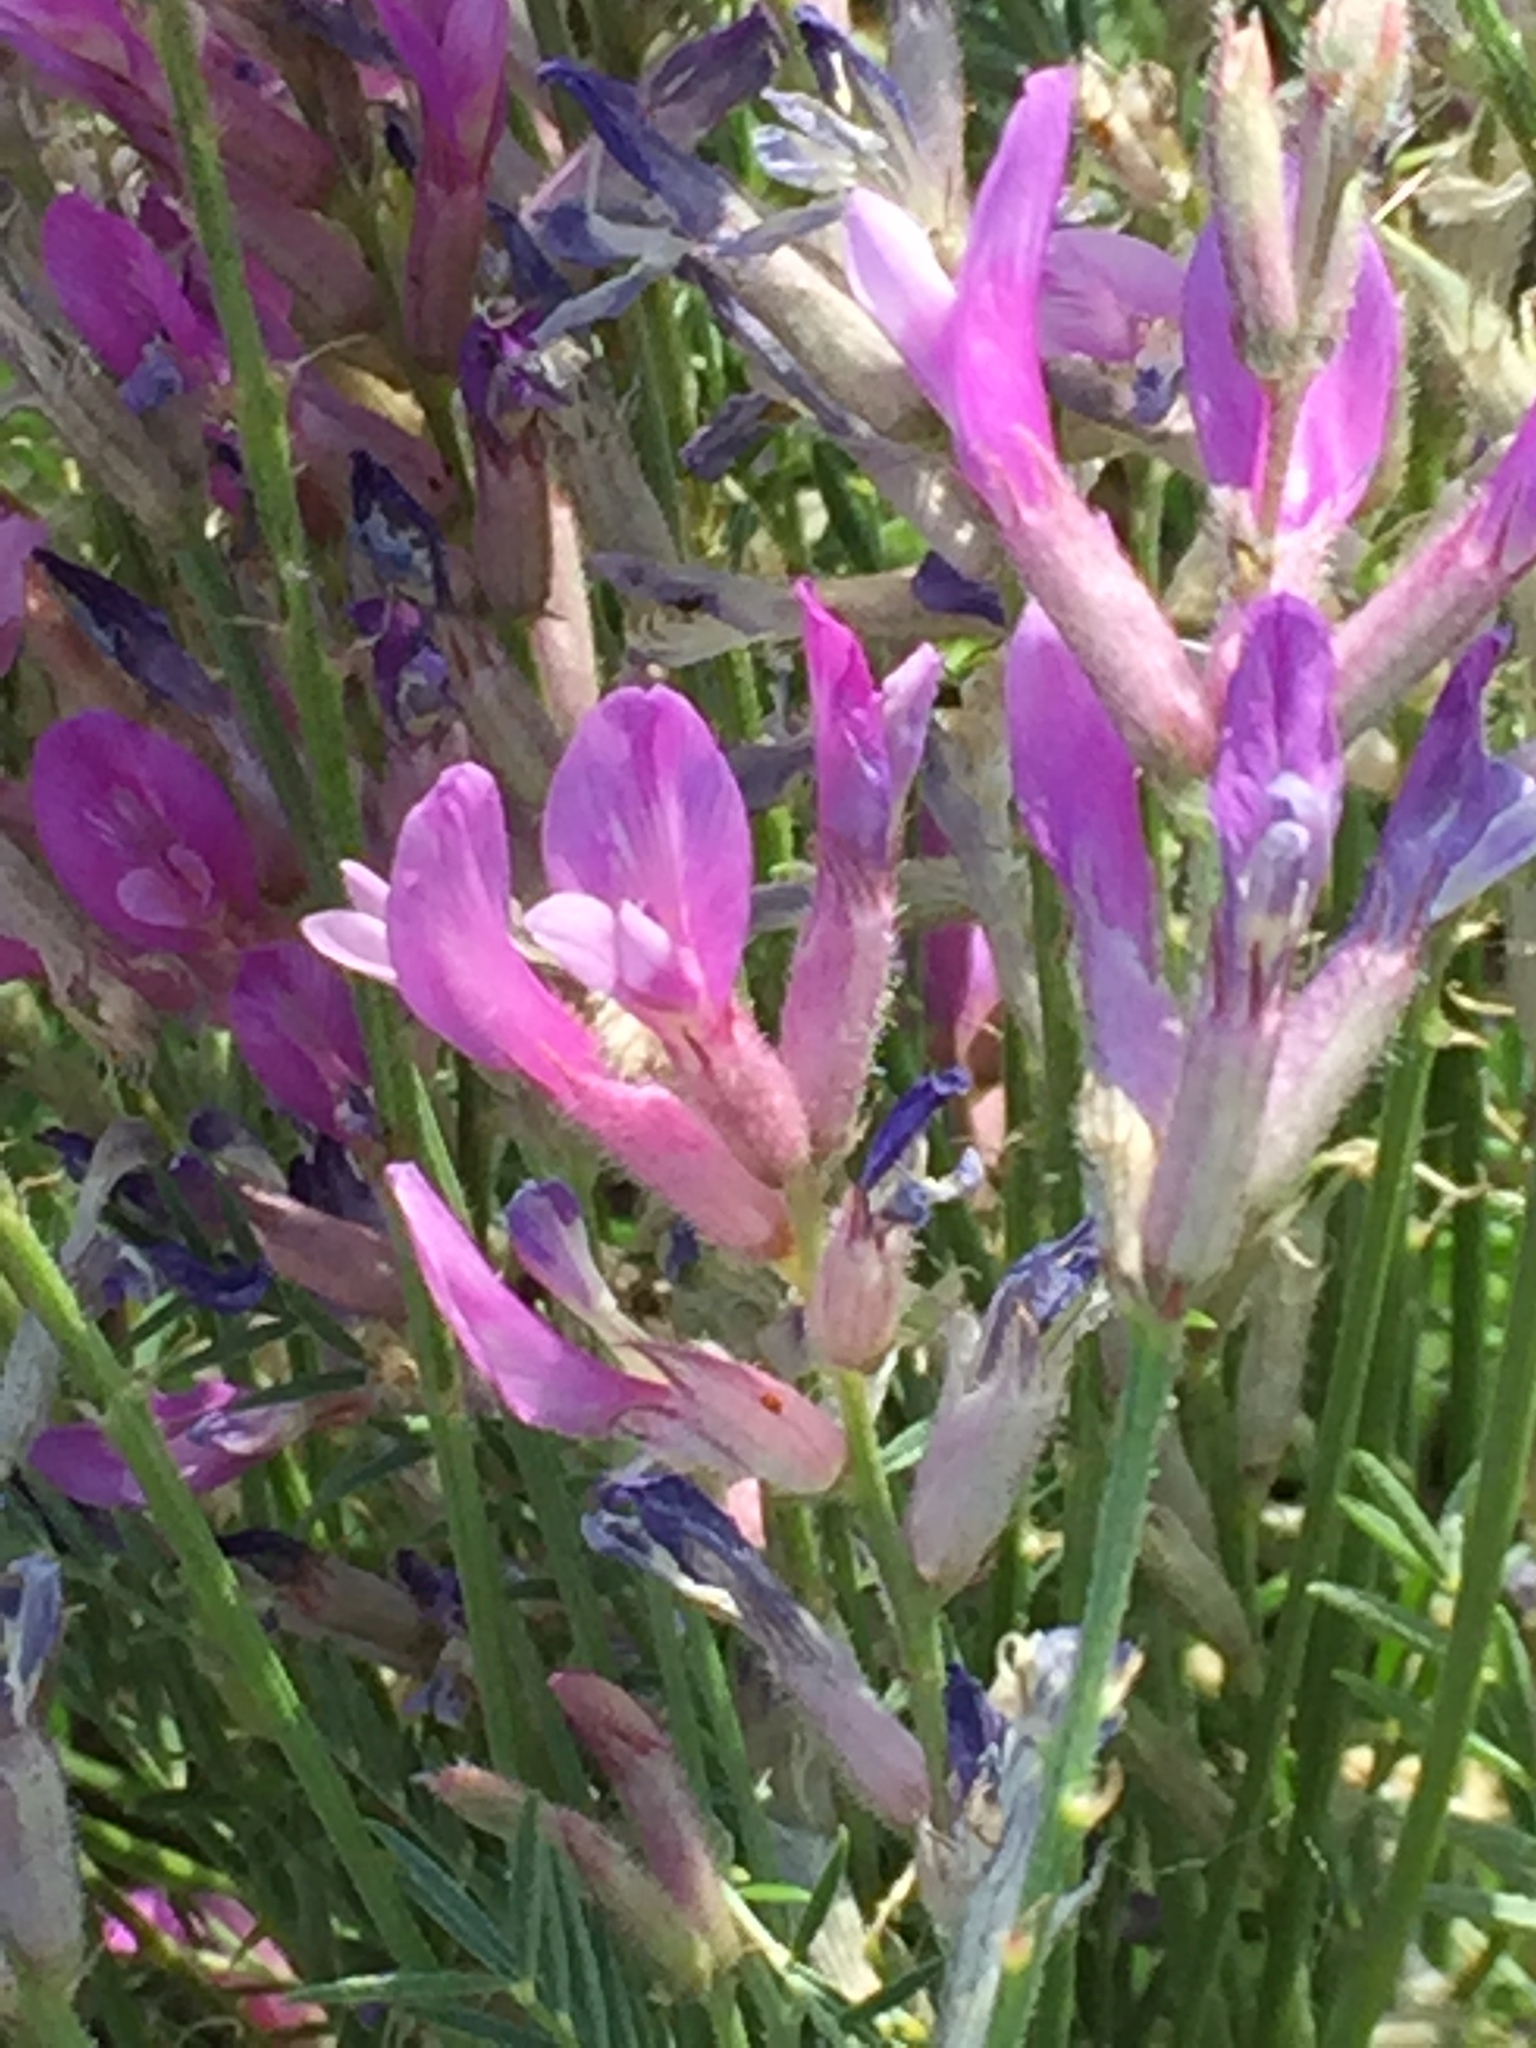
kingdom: Plantae
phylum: Tracheophyta
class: Magnoliopsida
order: Fabales
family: Fabaceae
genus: Astragalus
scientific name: Astragalus varius
